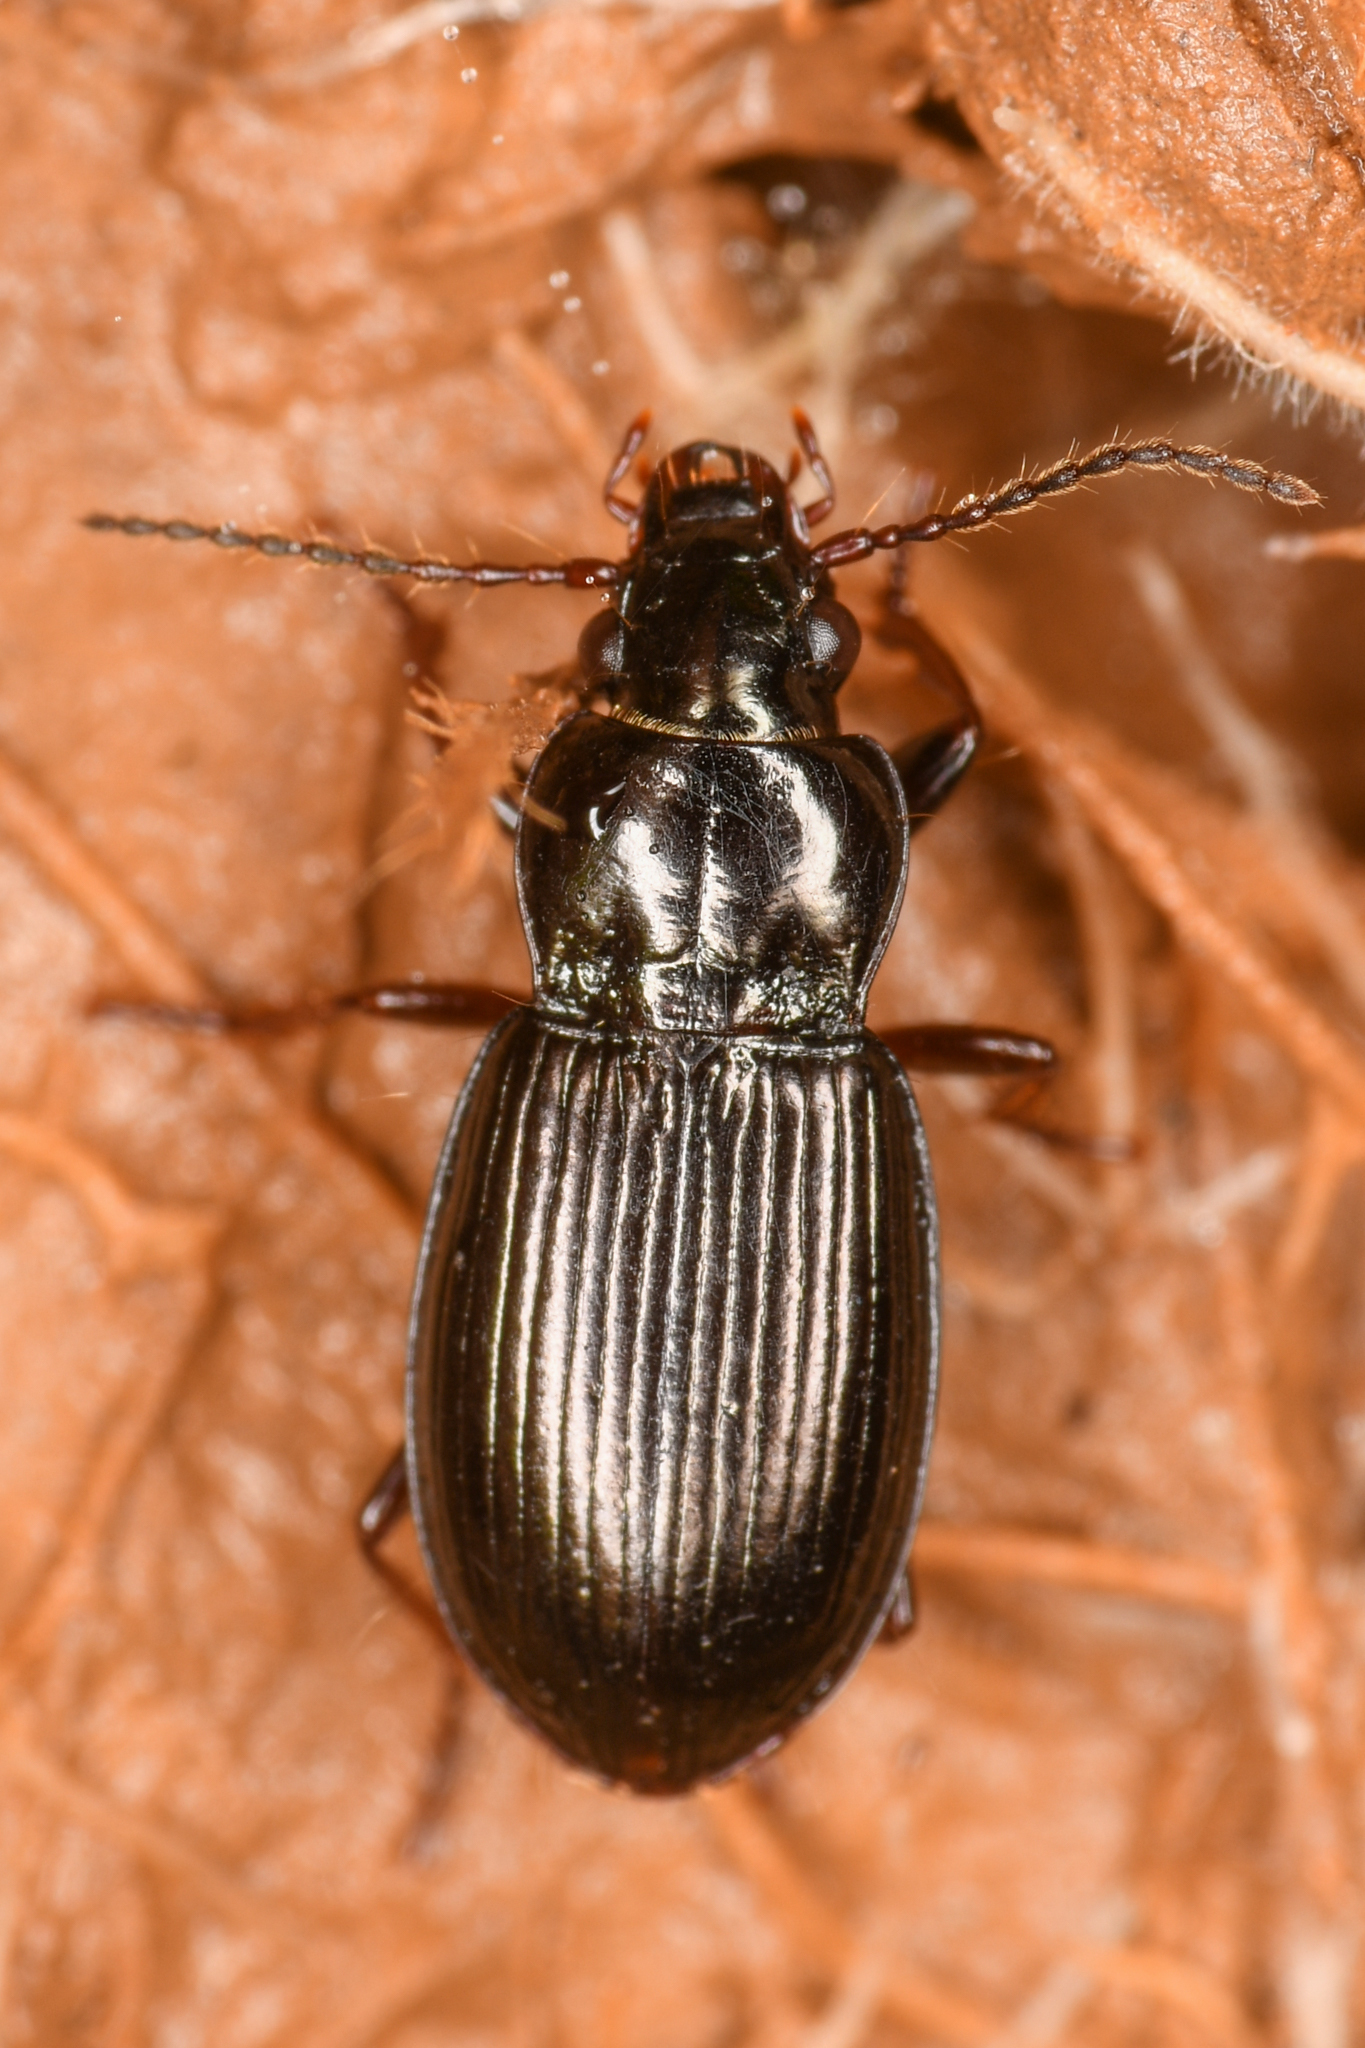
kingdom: Animalia
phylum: Arthropoda
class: Insecta
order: Coleoptera
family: Carabidae
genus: Pterostichus
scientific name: Pterostichus riparius
